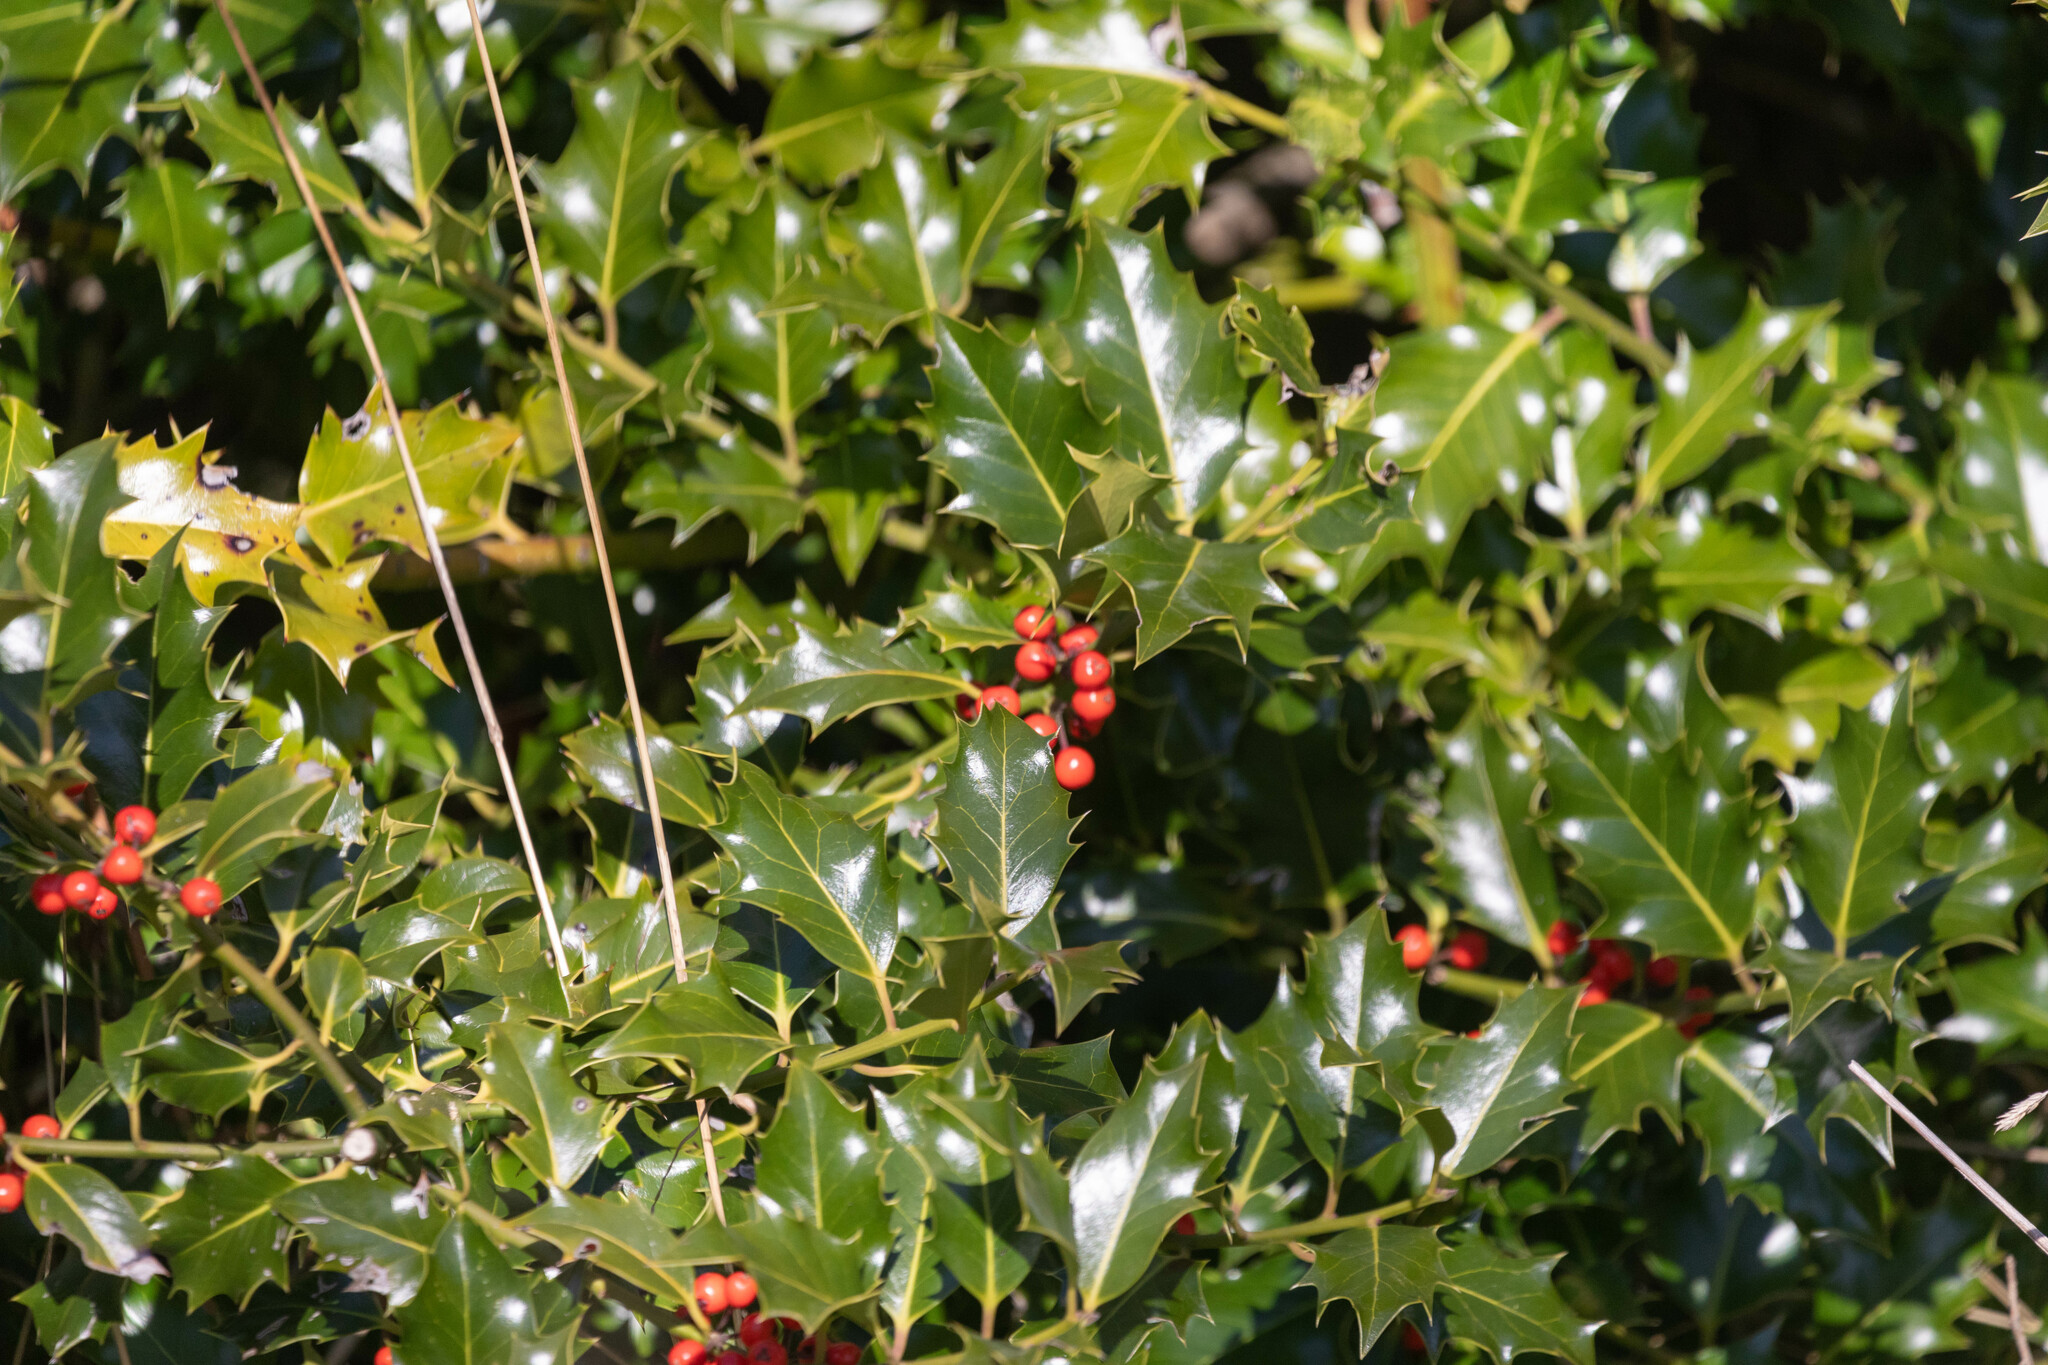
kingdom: Plantae
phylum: Tracheophyta
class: Magnoliopsida
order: Aquifoliales
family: Aquifoliaceae
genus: Ilex
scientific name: Ilex aquifolium
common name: English holly
